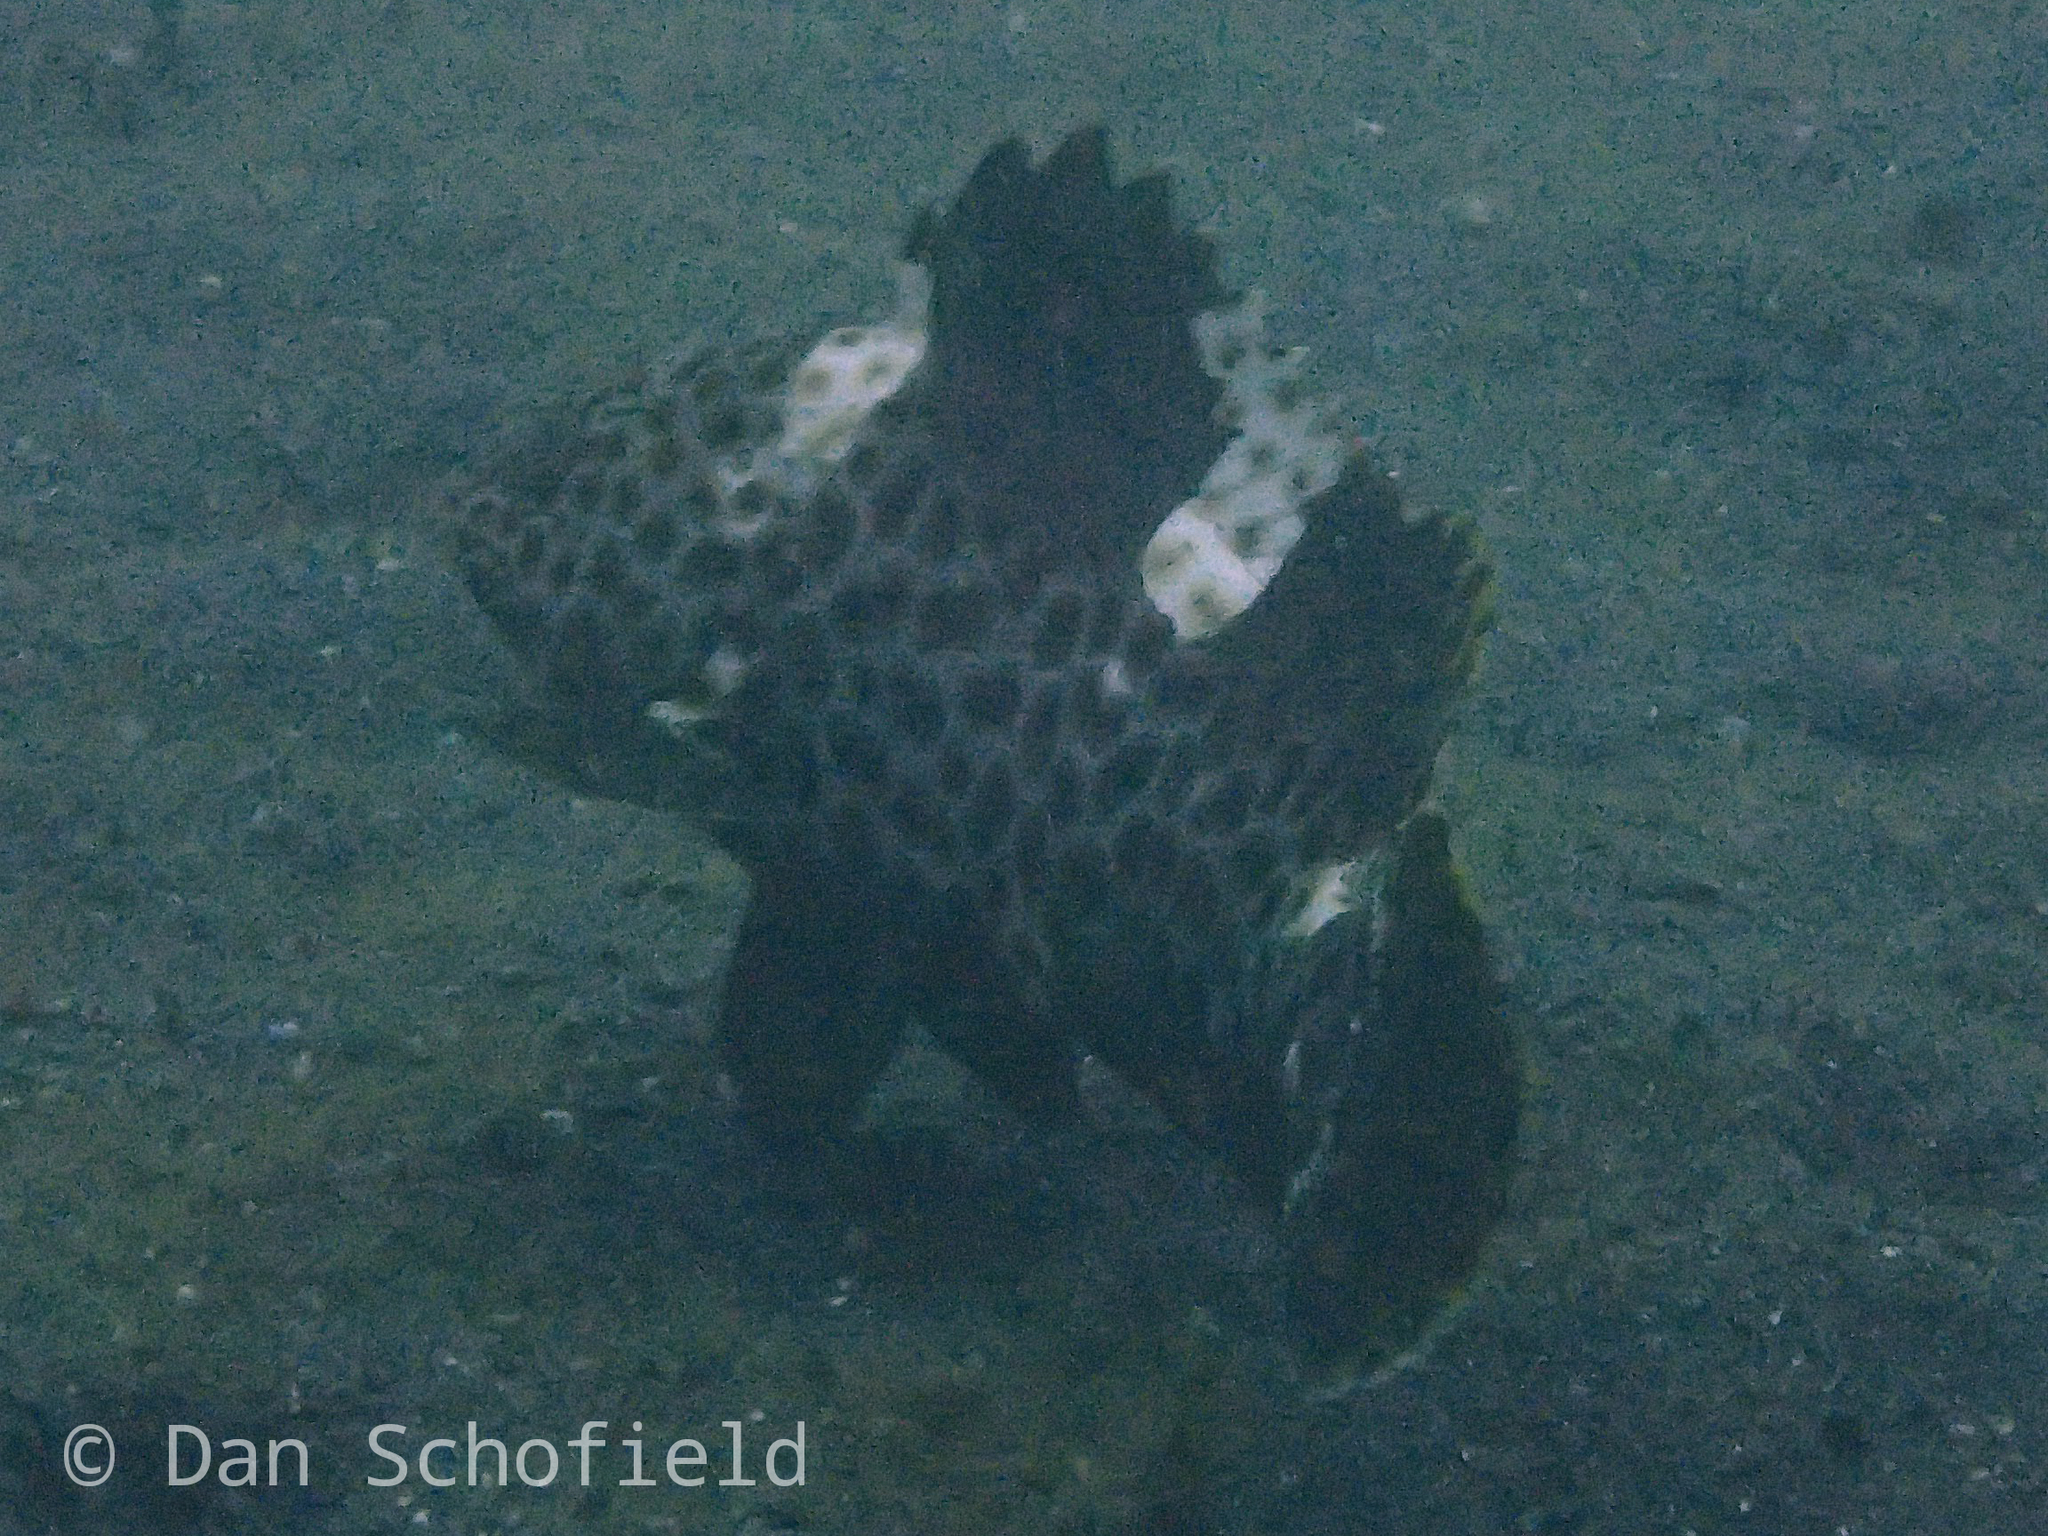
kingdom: Animalia
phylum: Chordata
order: Perciformes
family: Serranidae
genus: Epinephelus
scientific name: Epinephelus maculatus
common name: Highfin grouper
